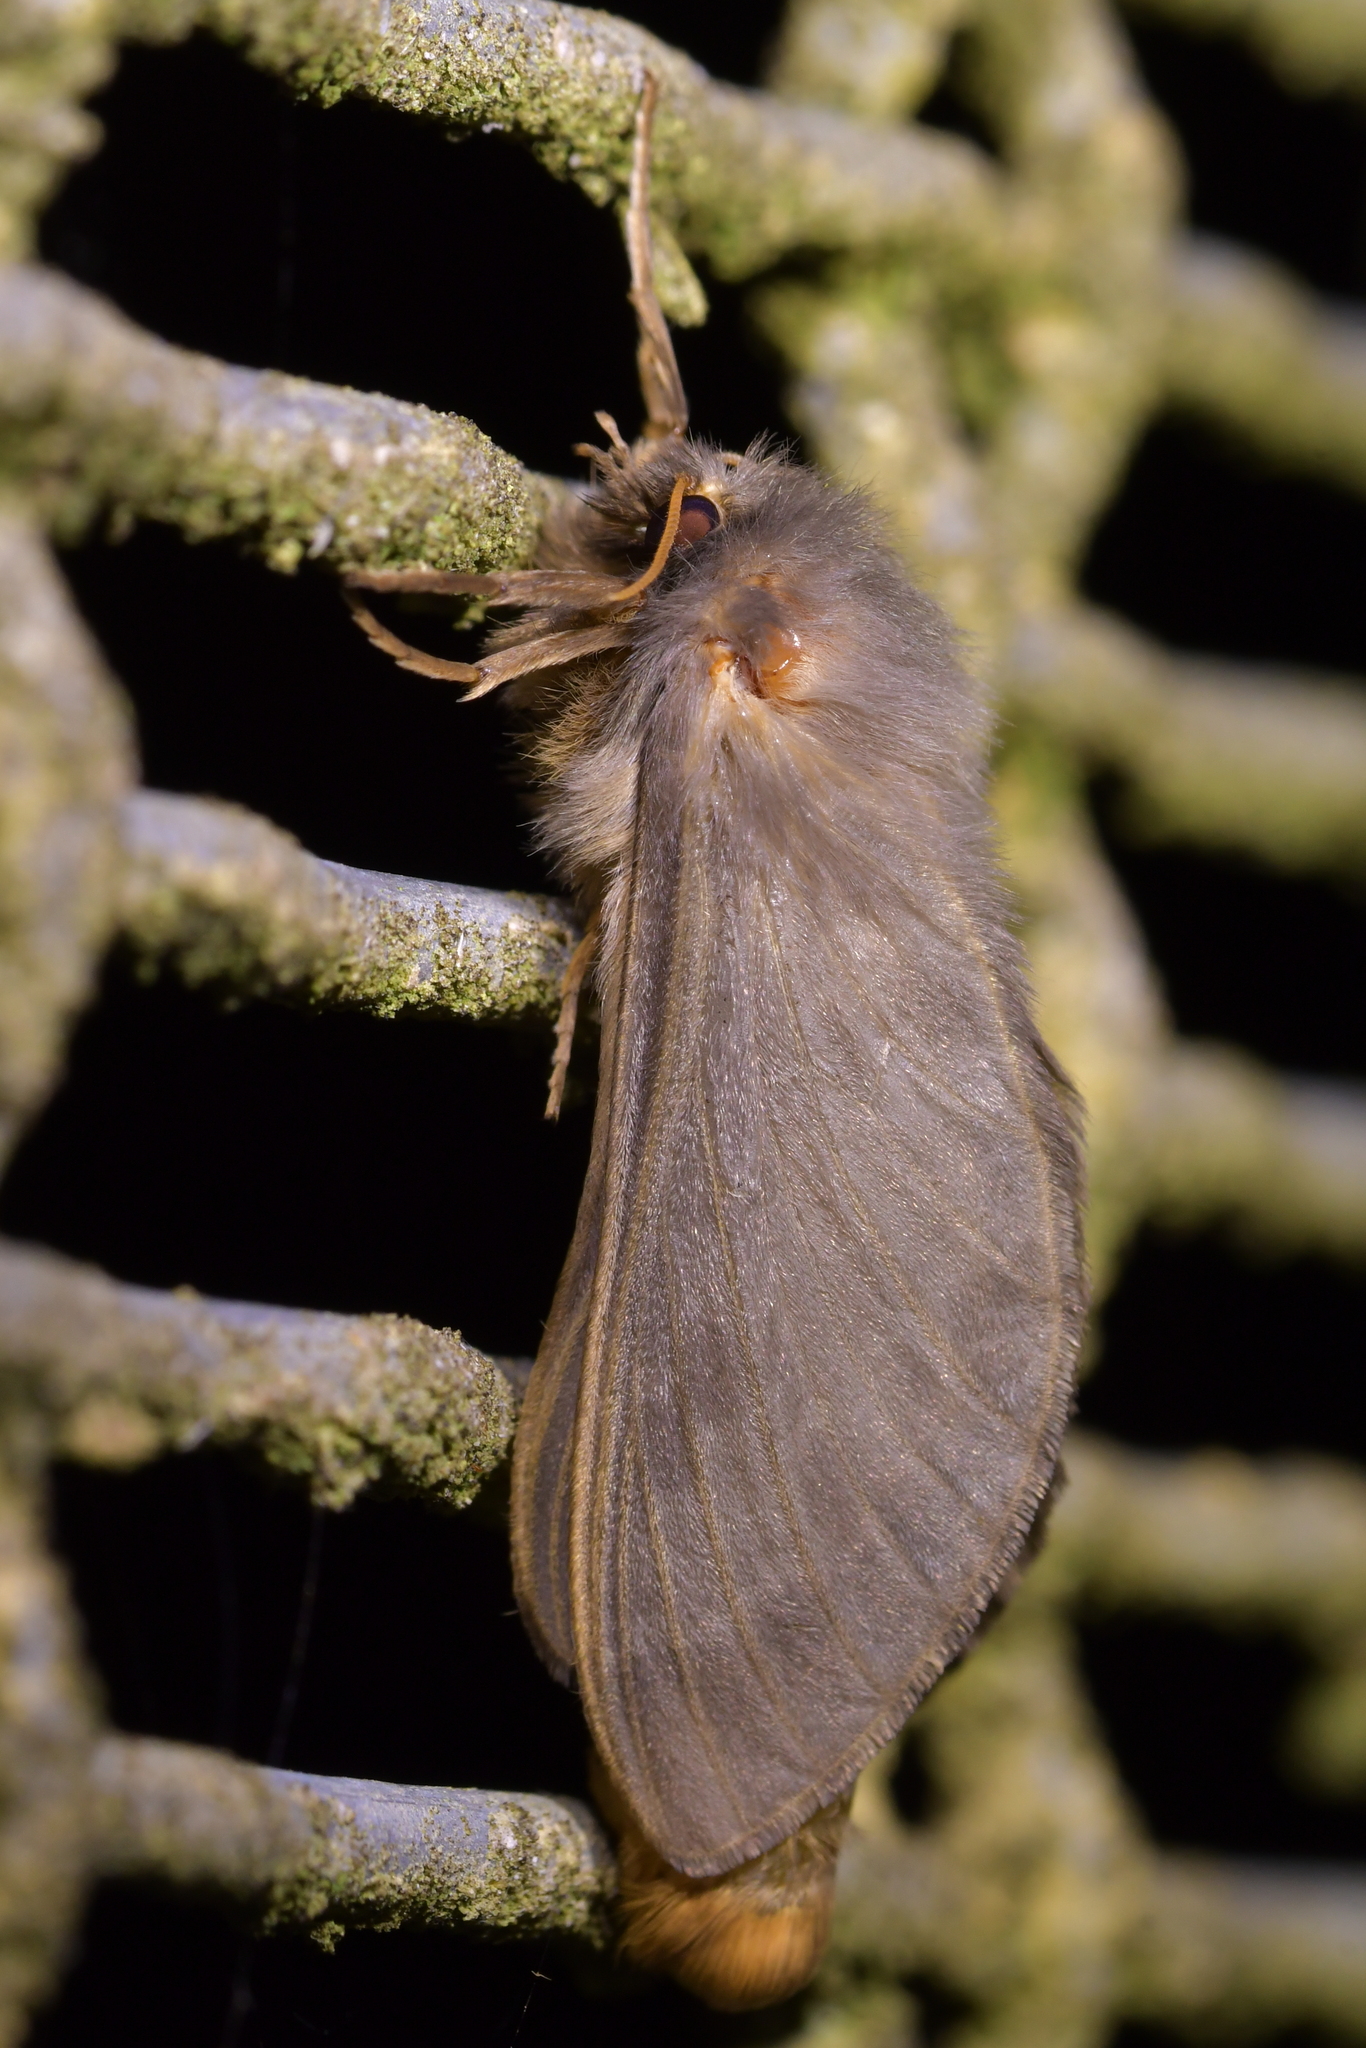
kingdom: Animalia
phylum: Arthropoda
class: Insecta
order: Lepidoptera
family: Hepialidae
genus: Cladoxycanus
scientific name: Cladoxycanus minos
